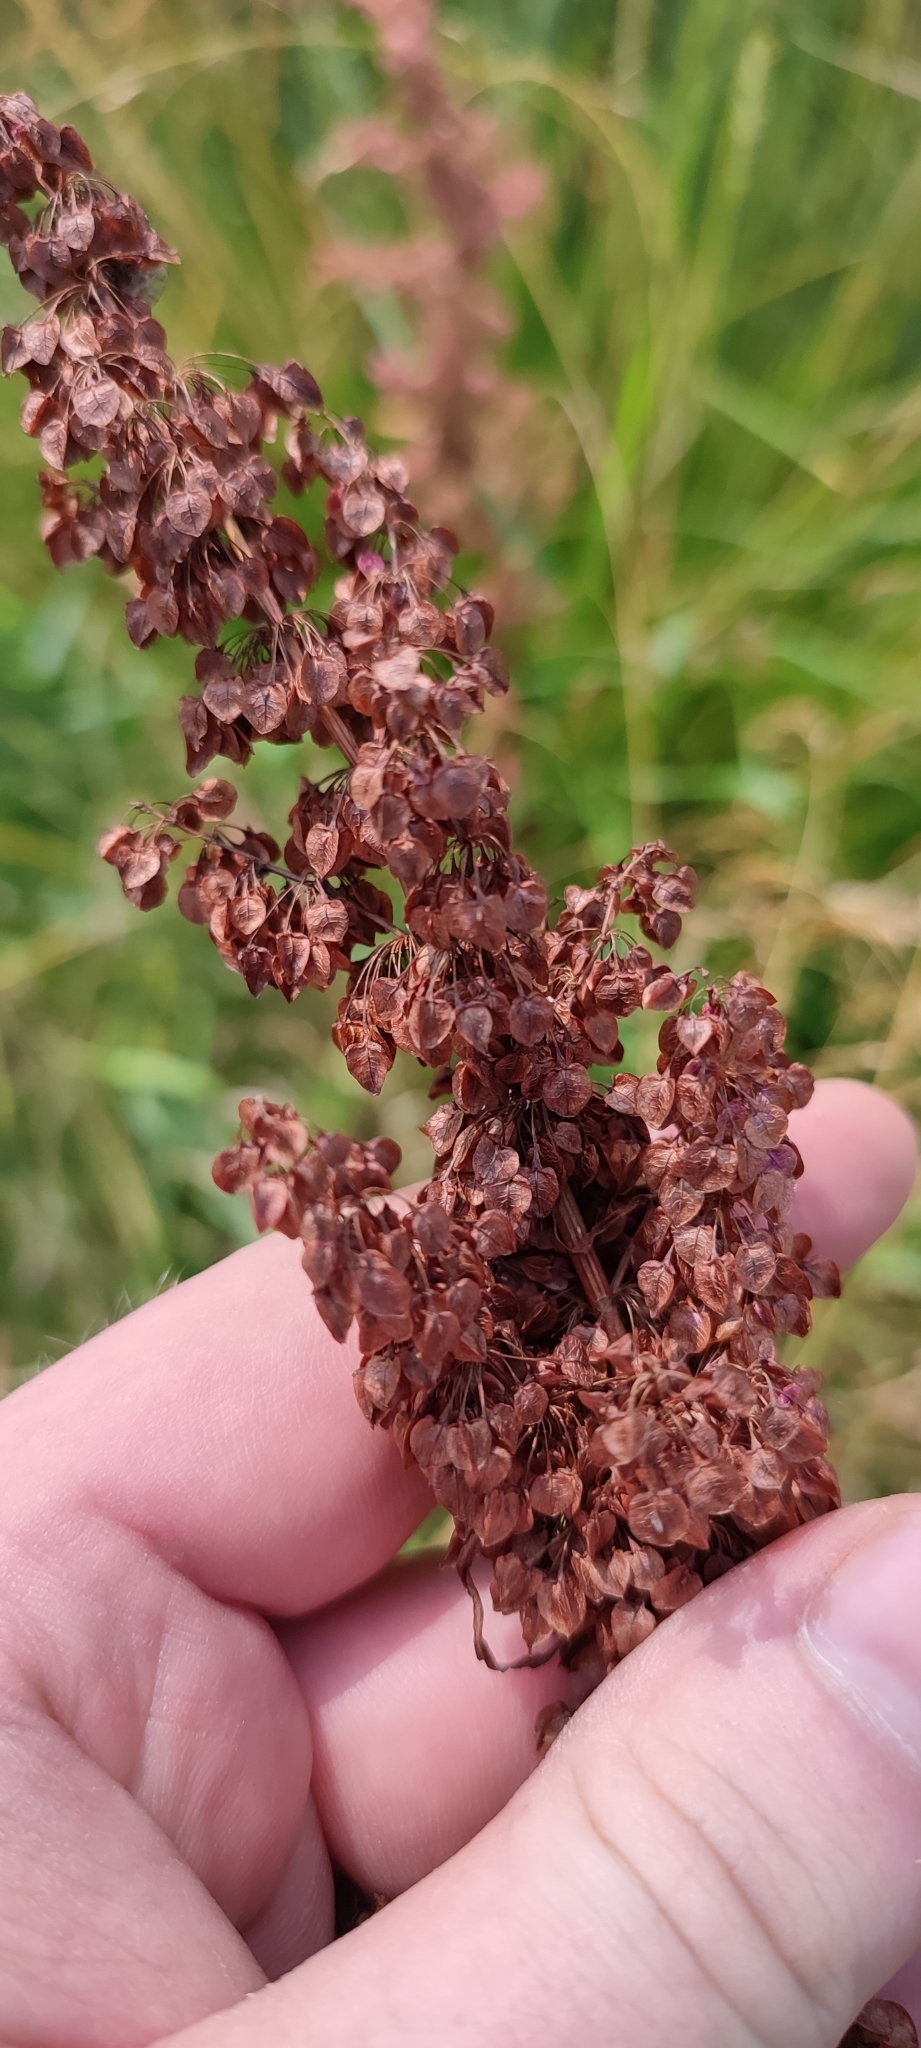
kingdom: Plantae
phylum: Tracheophyta
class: Magnoliopsida
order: Caryophyllales
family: Polygonaceae
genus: Rumex
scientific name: Rumex pseudonatronatus
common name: Field dock
